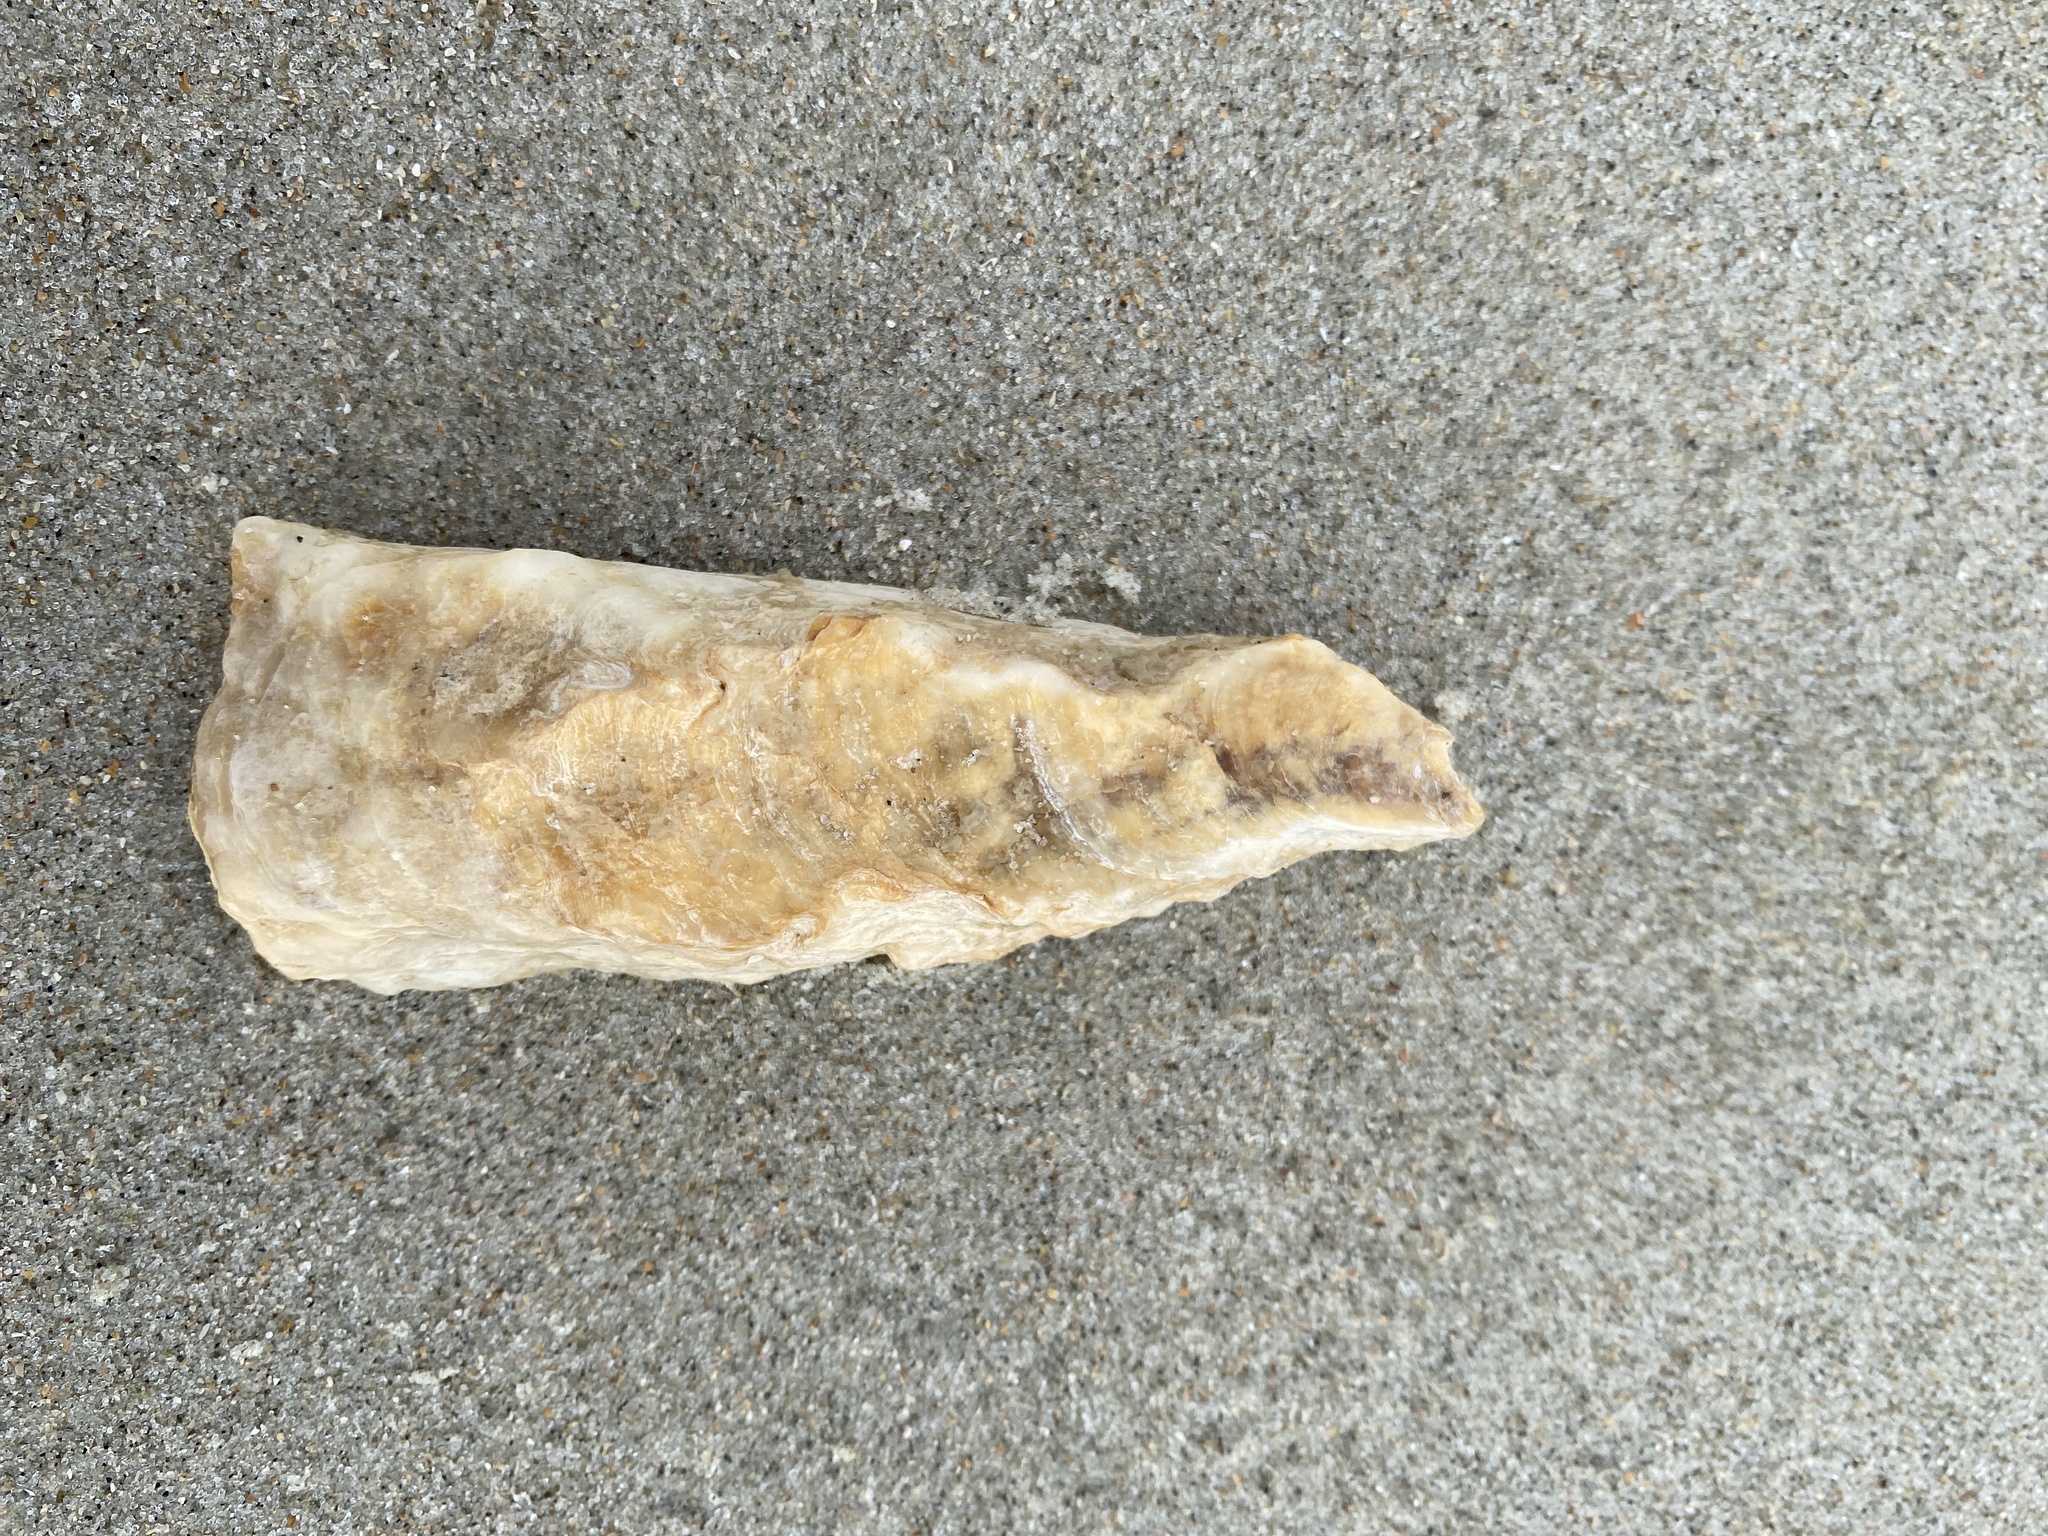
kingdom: Animalia
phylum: Mollusca
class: Bivalvia
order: Ostreida
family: Ostreidae
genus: Crassostrea
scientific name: Crassostrea virginica
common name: American oyster
